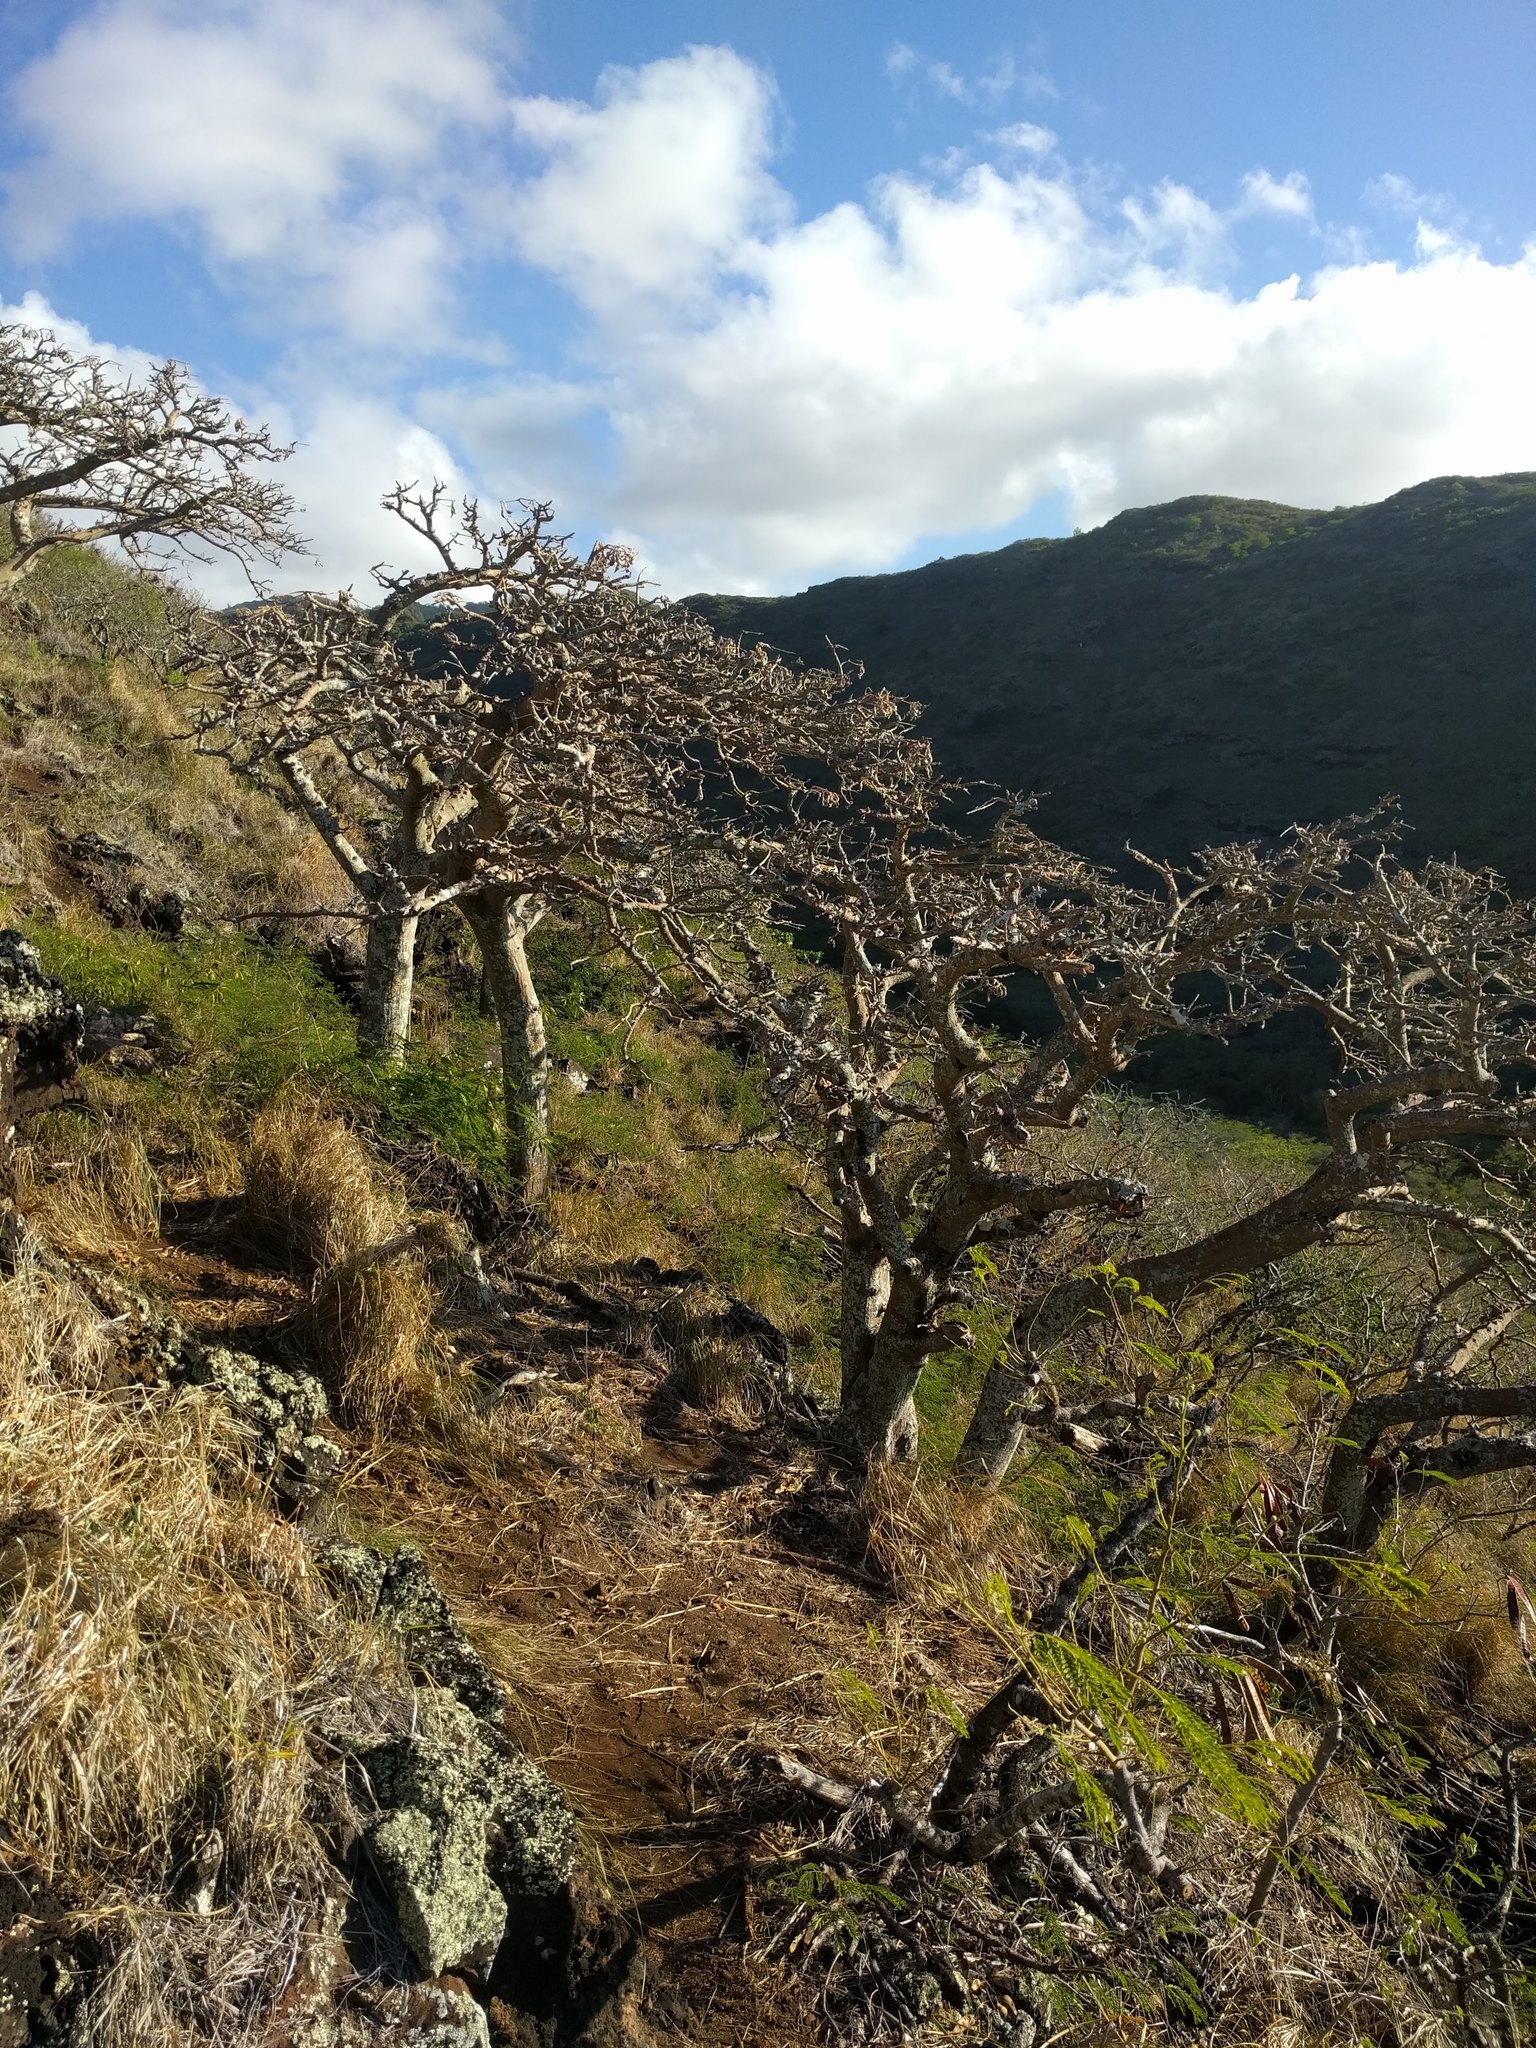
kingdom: Plantae
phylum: Tracheophyta
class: Magnoliopsida
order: Fabales
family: Fabaceae
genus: Erythrina
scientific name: Erythrina sandwicensis
